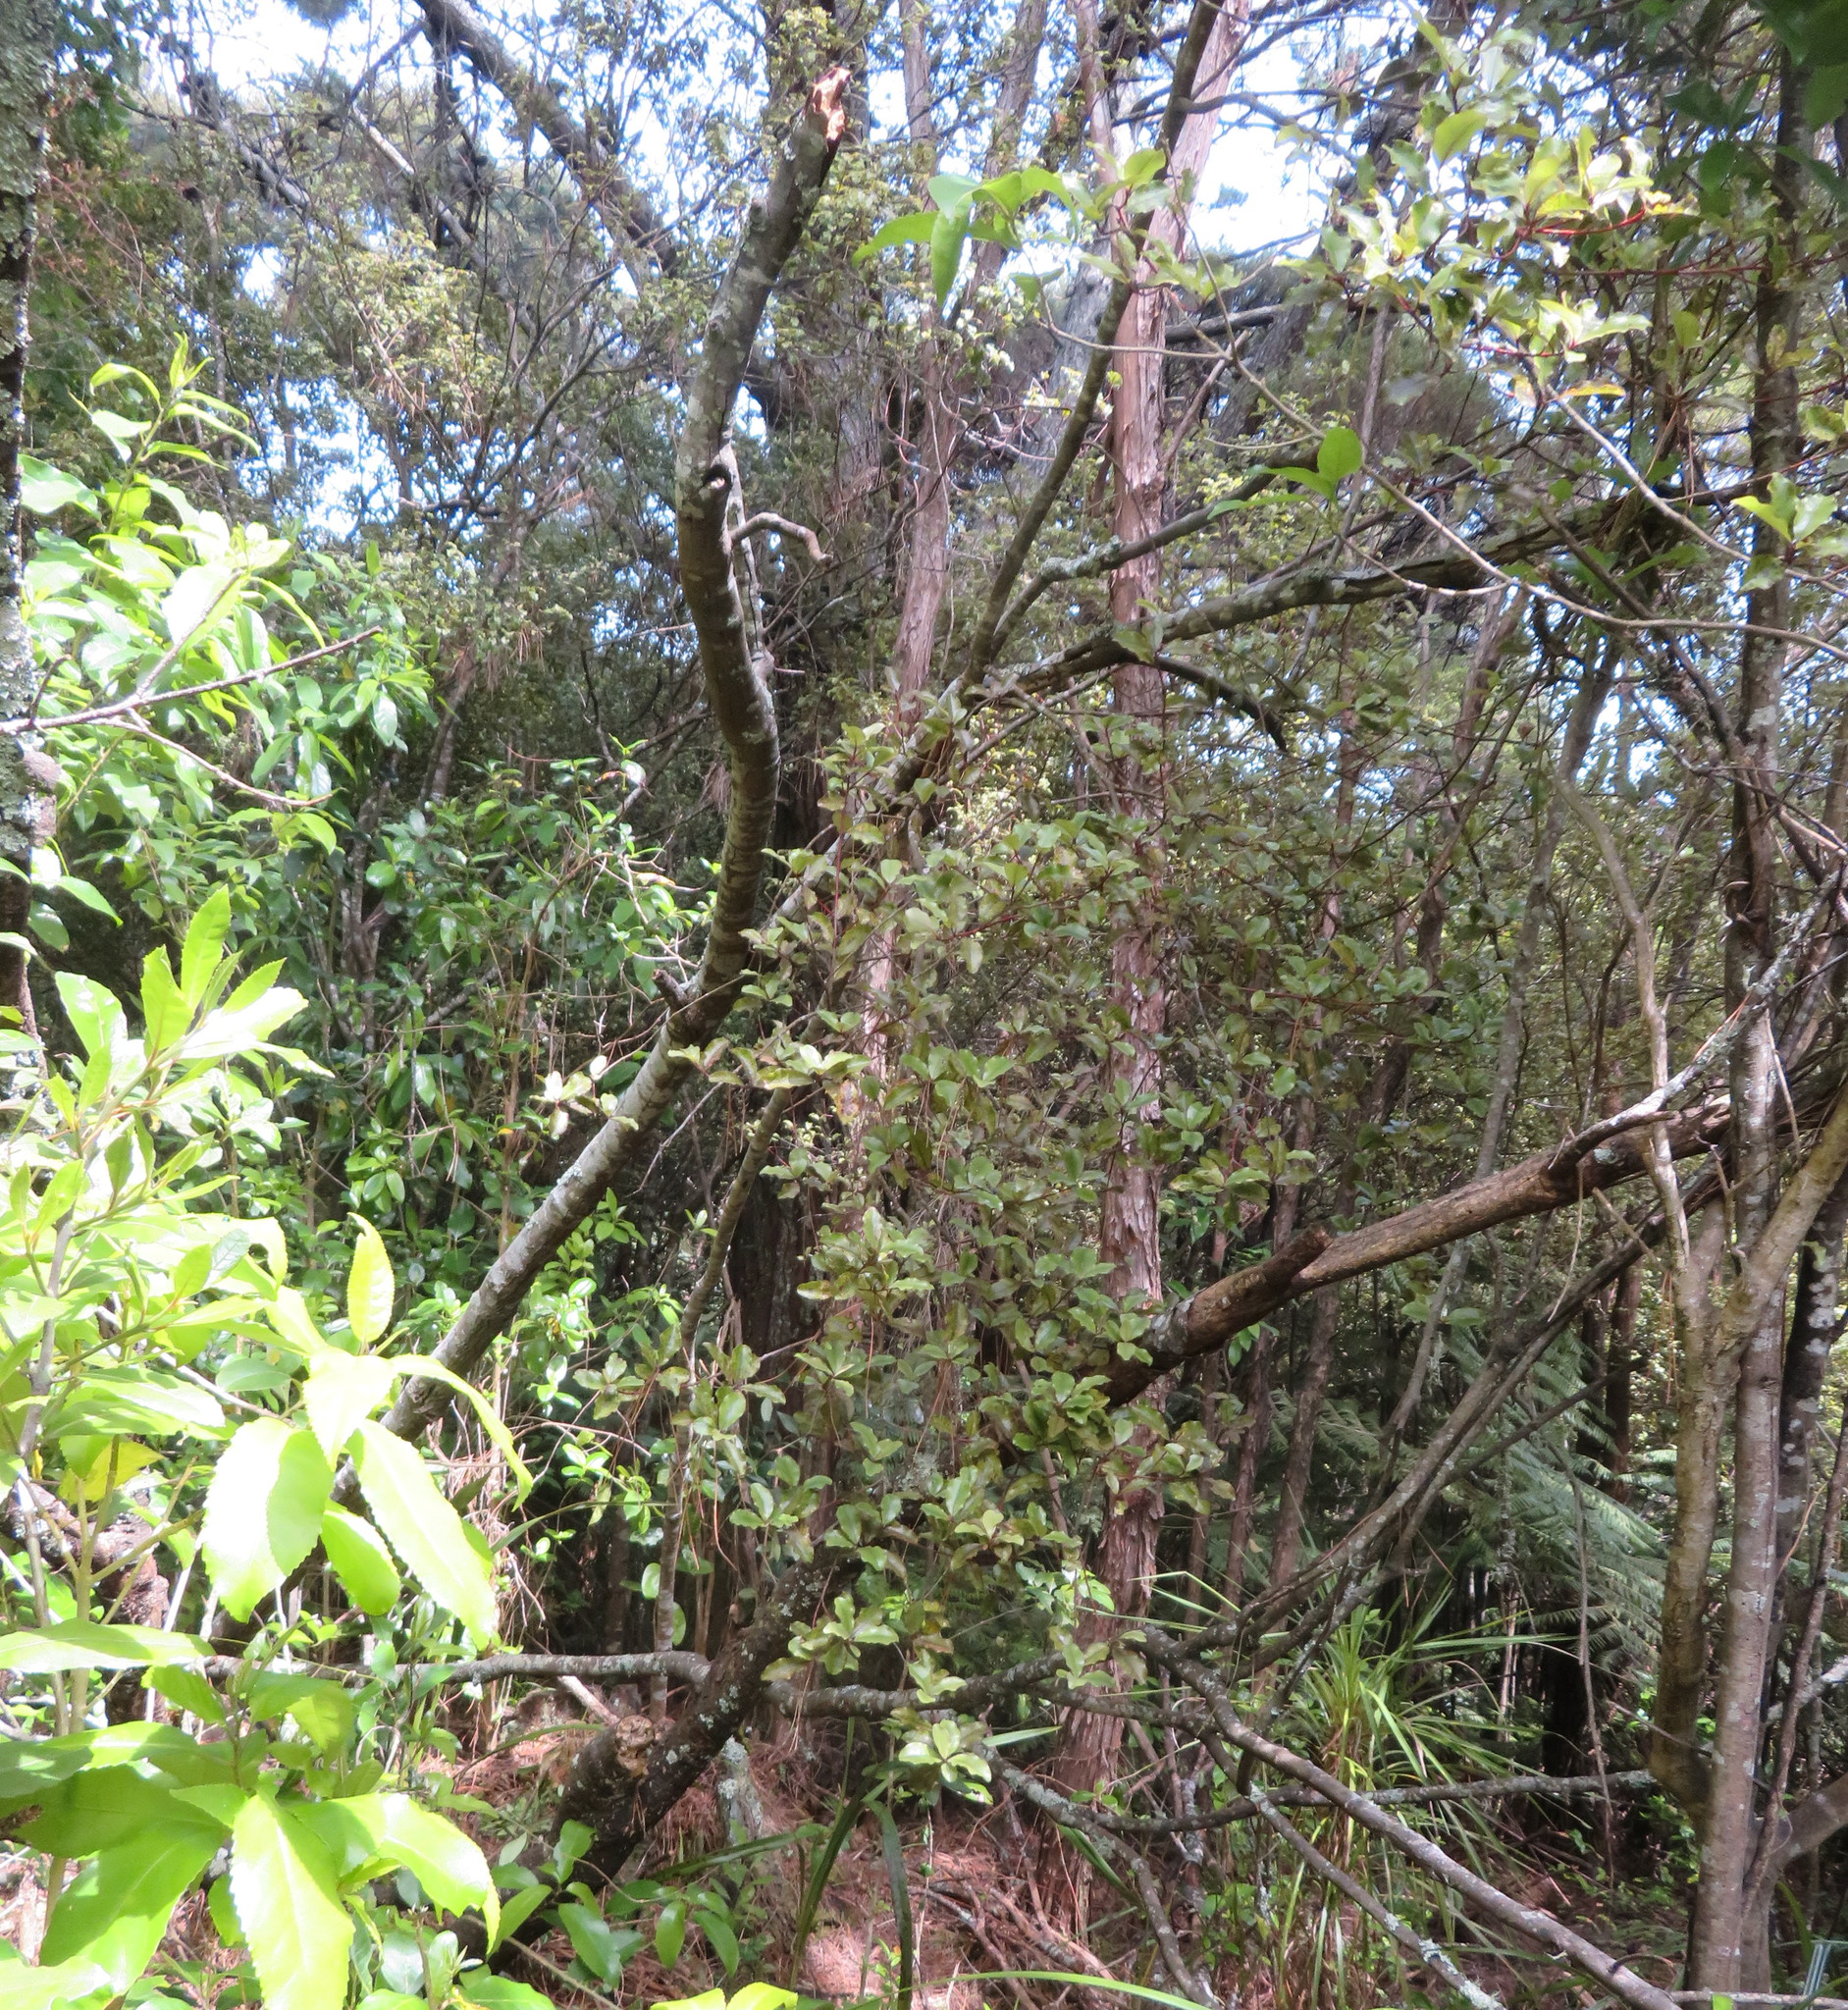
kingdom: Plantae
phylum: Tracheophyta
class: Magnoliopsida
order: Ericales
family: Primulaceae
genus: Myrsine
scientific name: Myrsine australis
